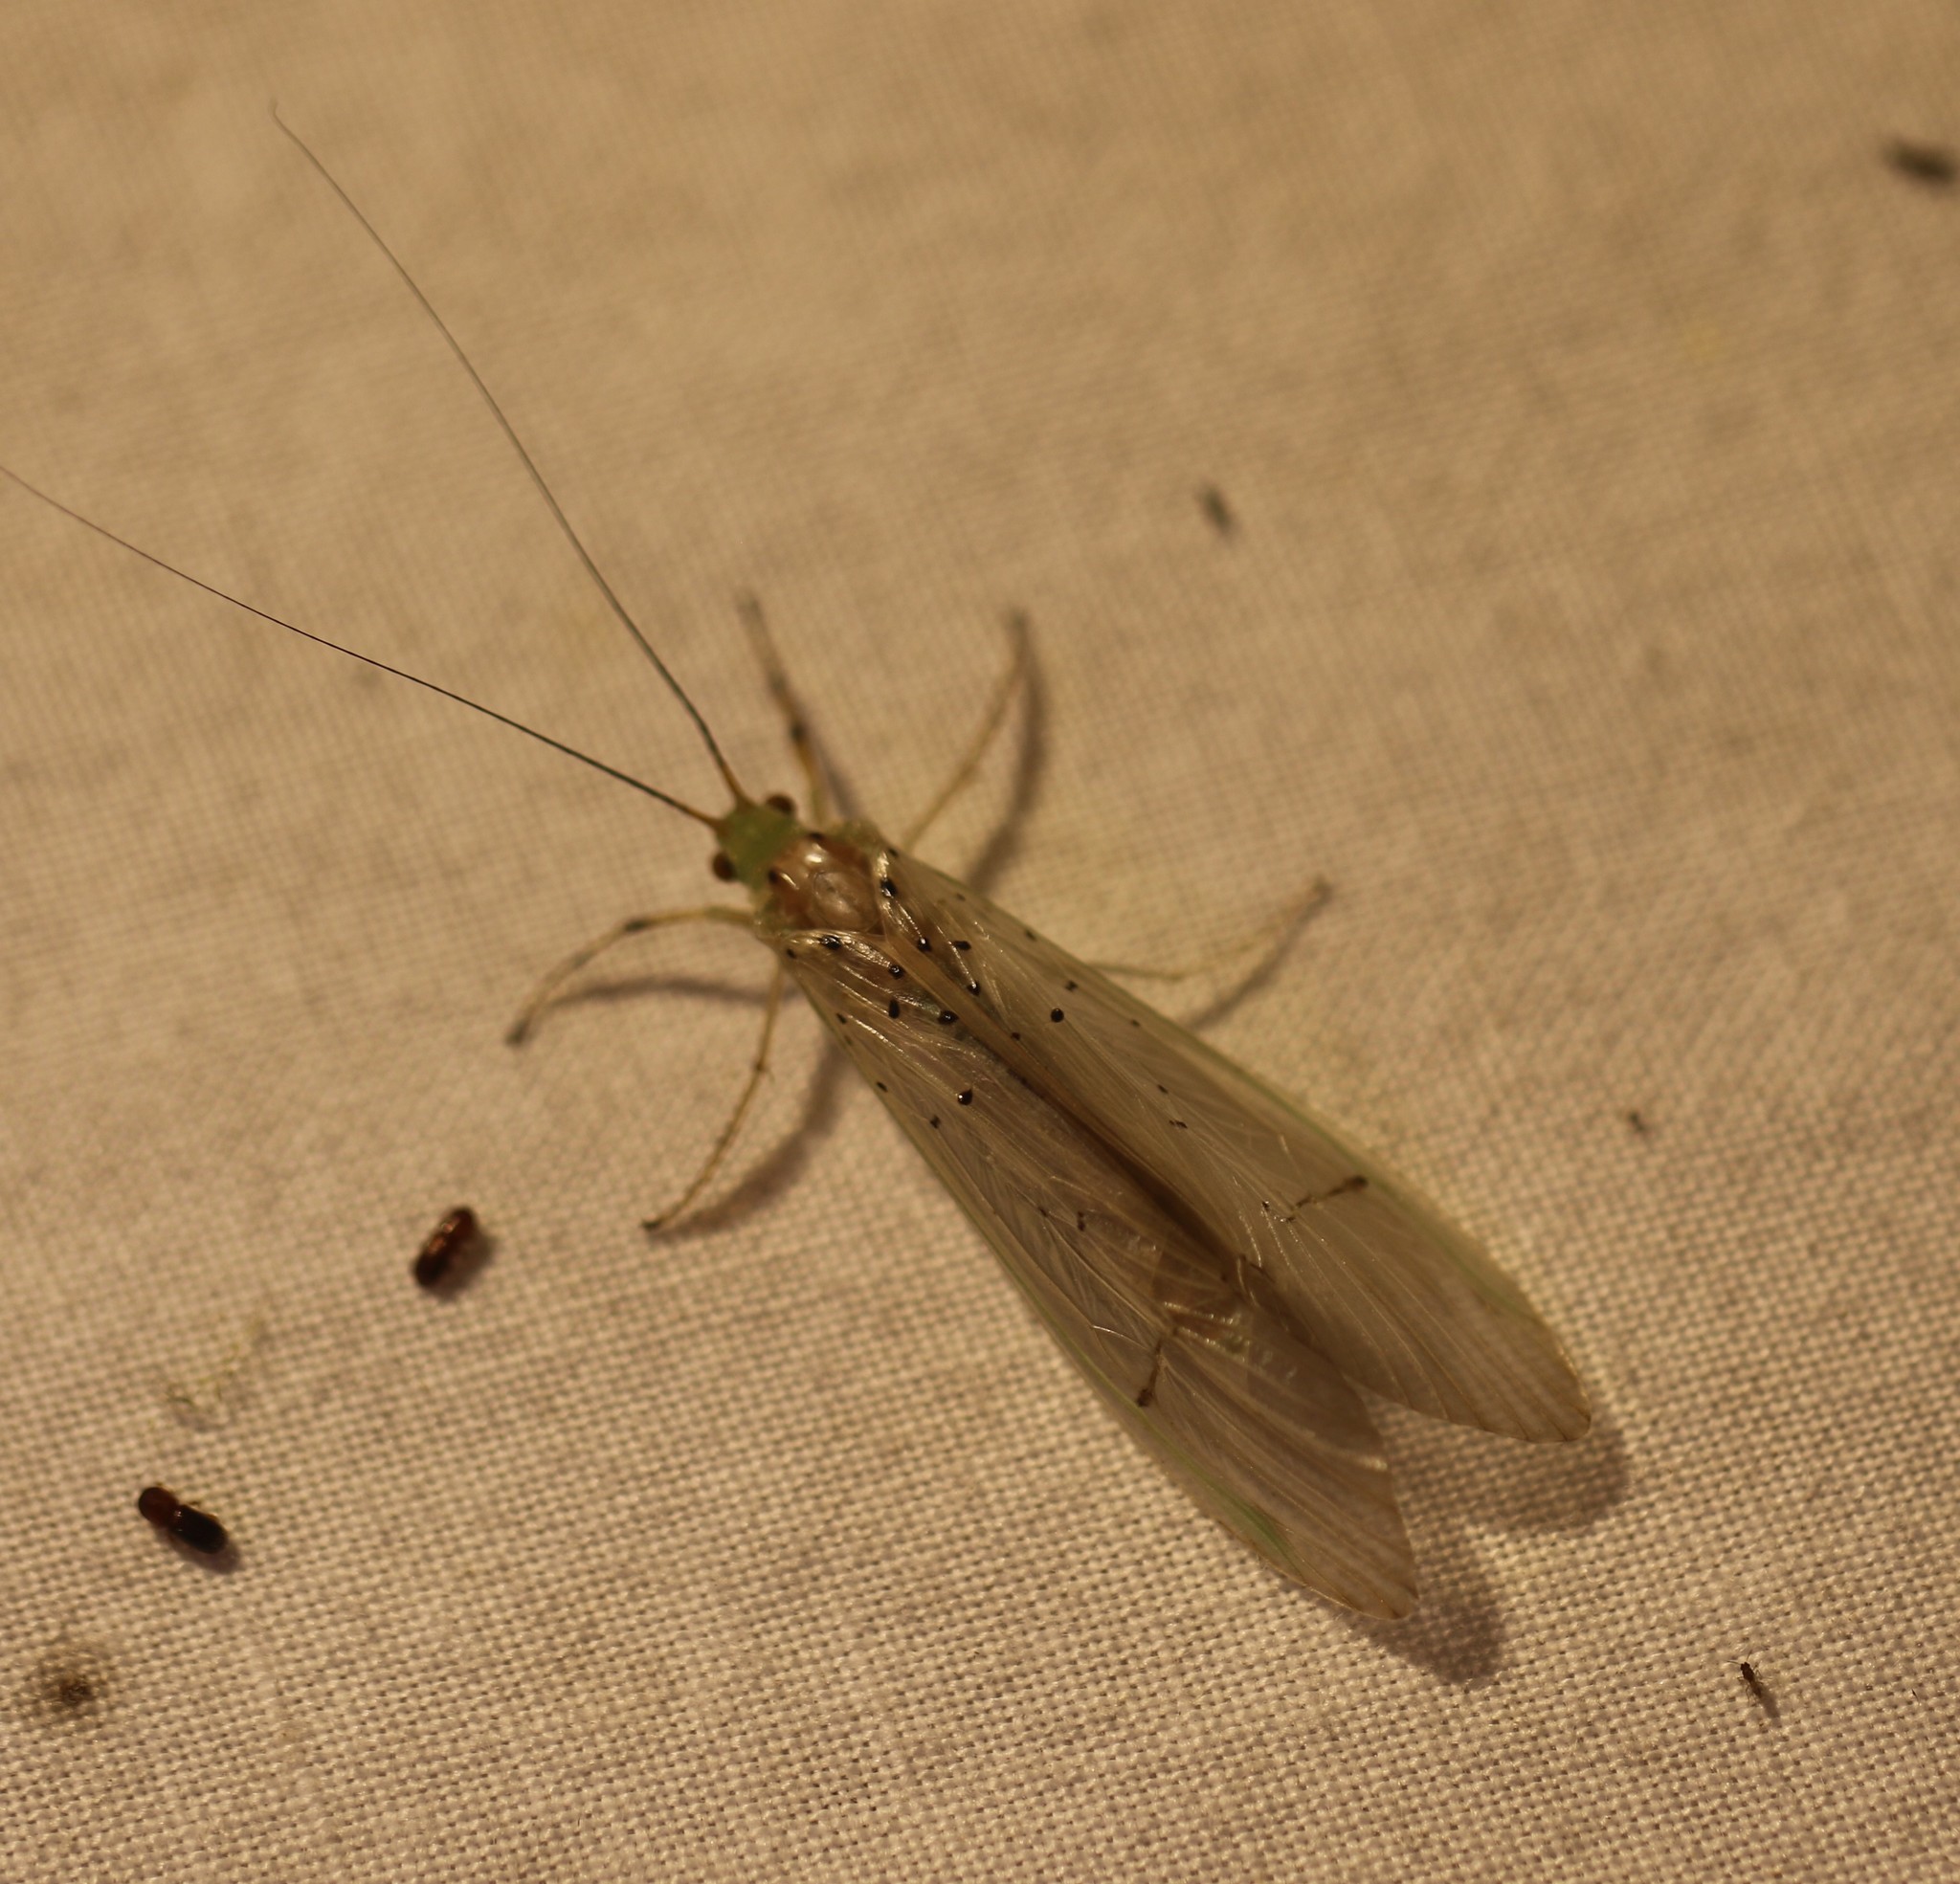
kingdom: Animalia
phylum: Arthropoda
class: Insecta
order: Trichoptera
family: Hydropsychidae
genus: Synoestropsis
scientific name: Synoestropsis punctipennis
